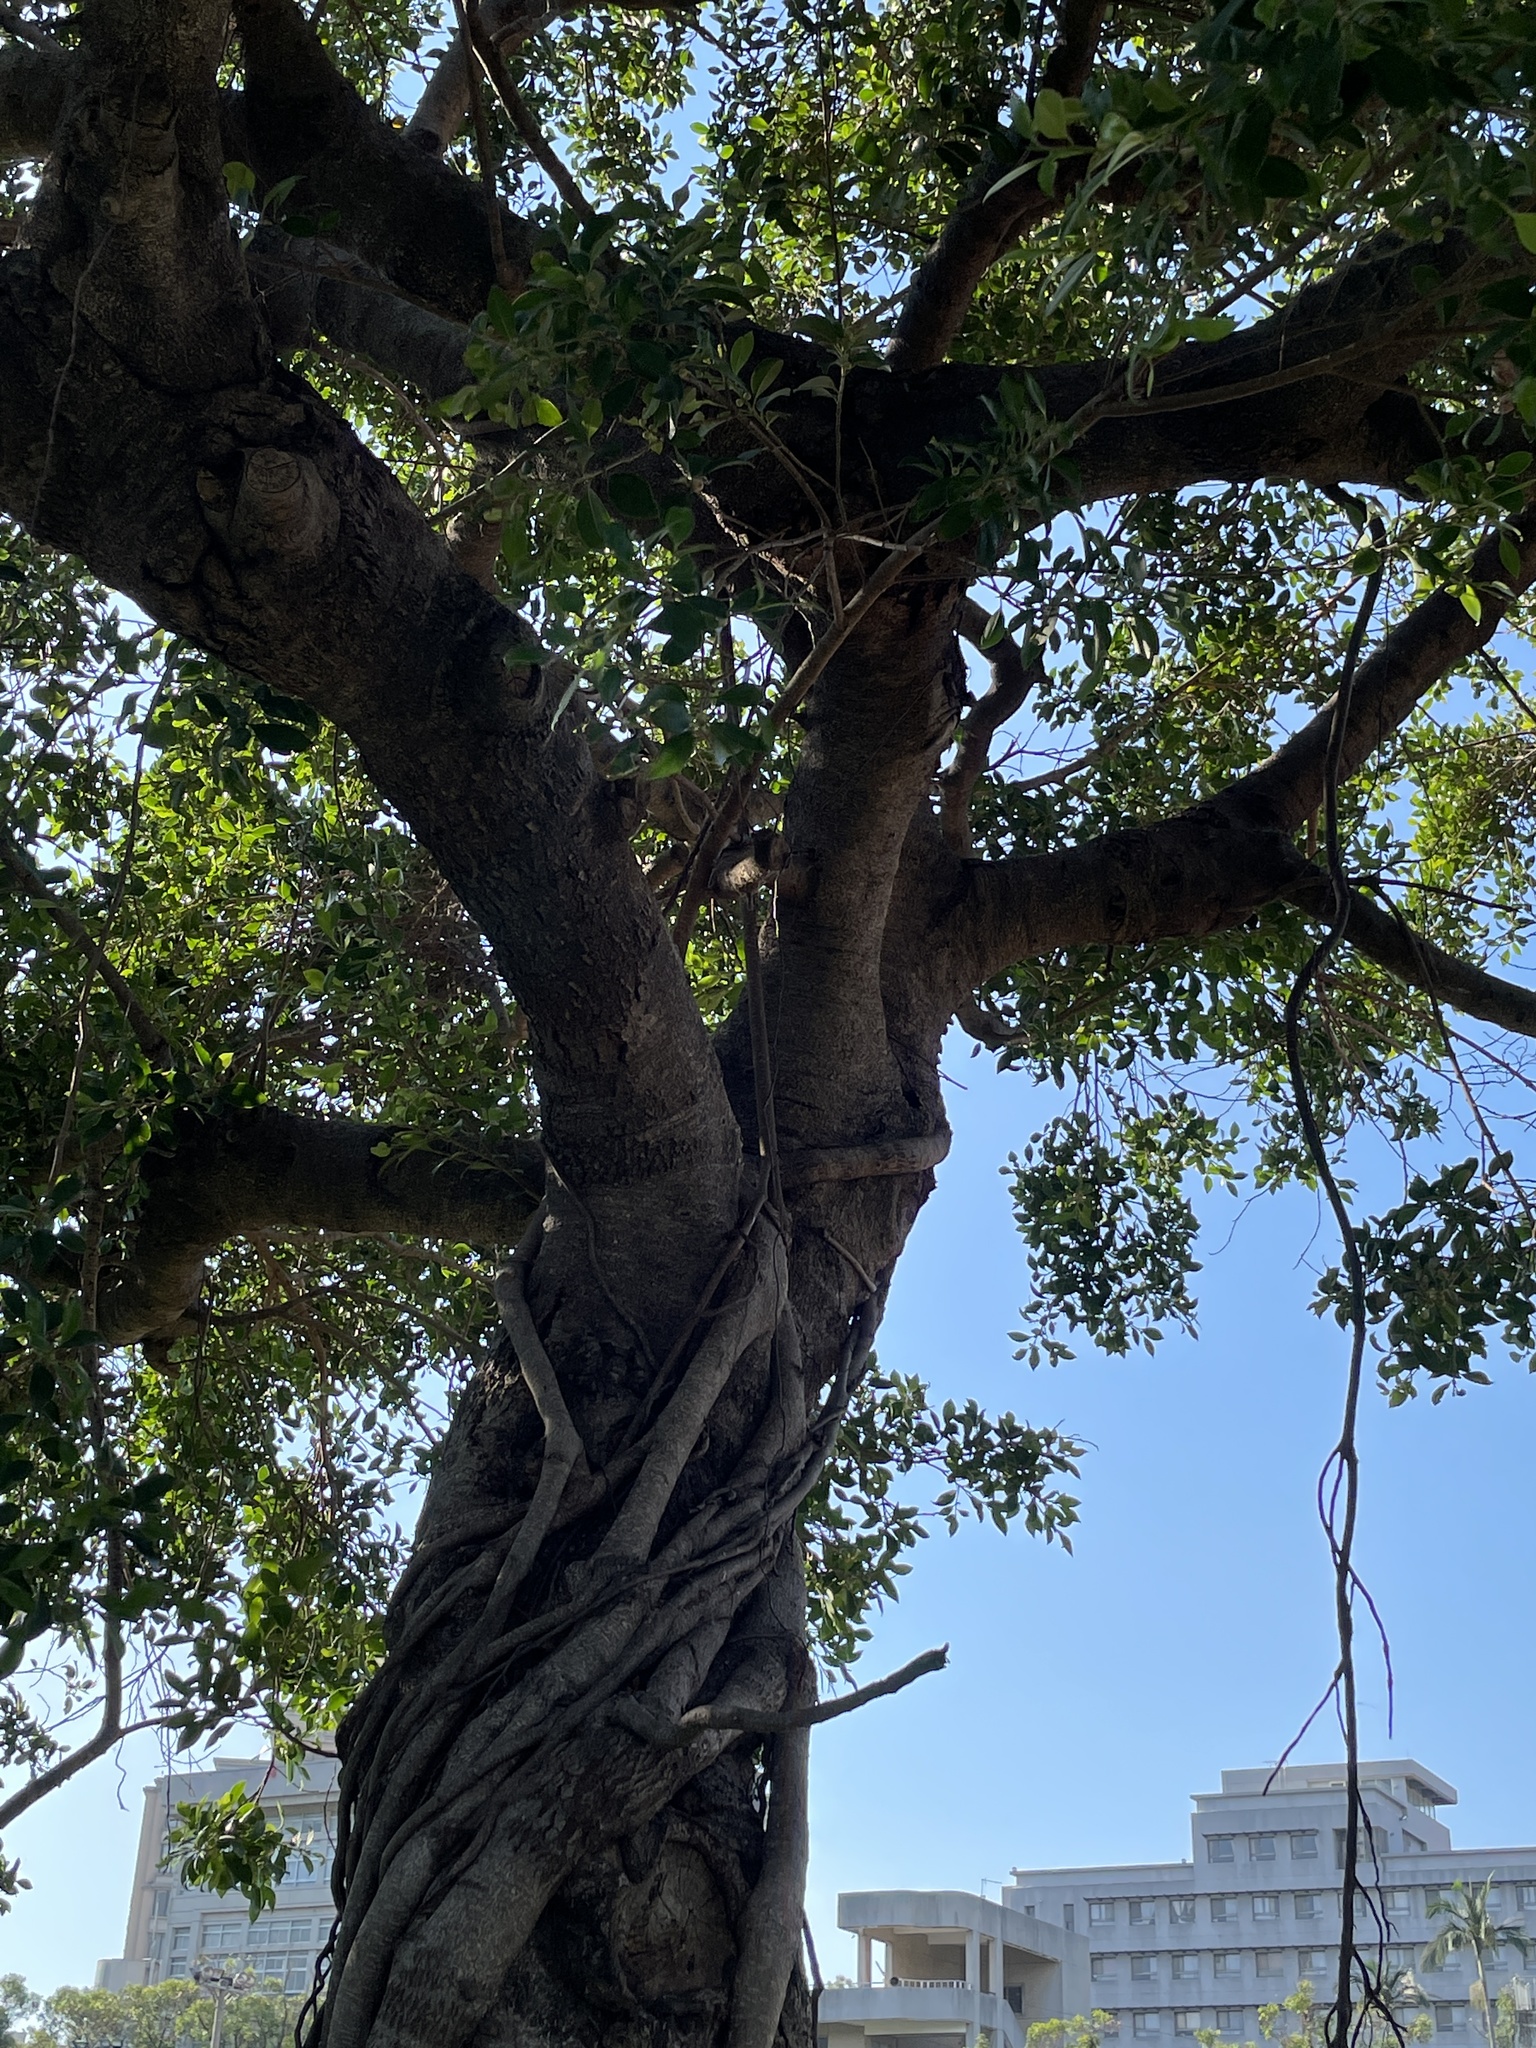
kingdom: Plantae
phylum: Tracheophyta
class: Magnoliopsida
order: Rosales
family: Moraceae
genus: Ficus
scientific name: Ficus microcarpa
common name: Chinese banyan
